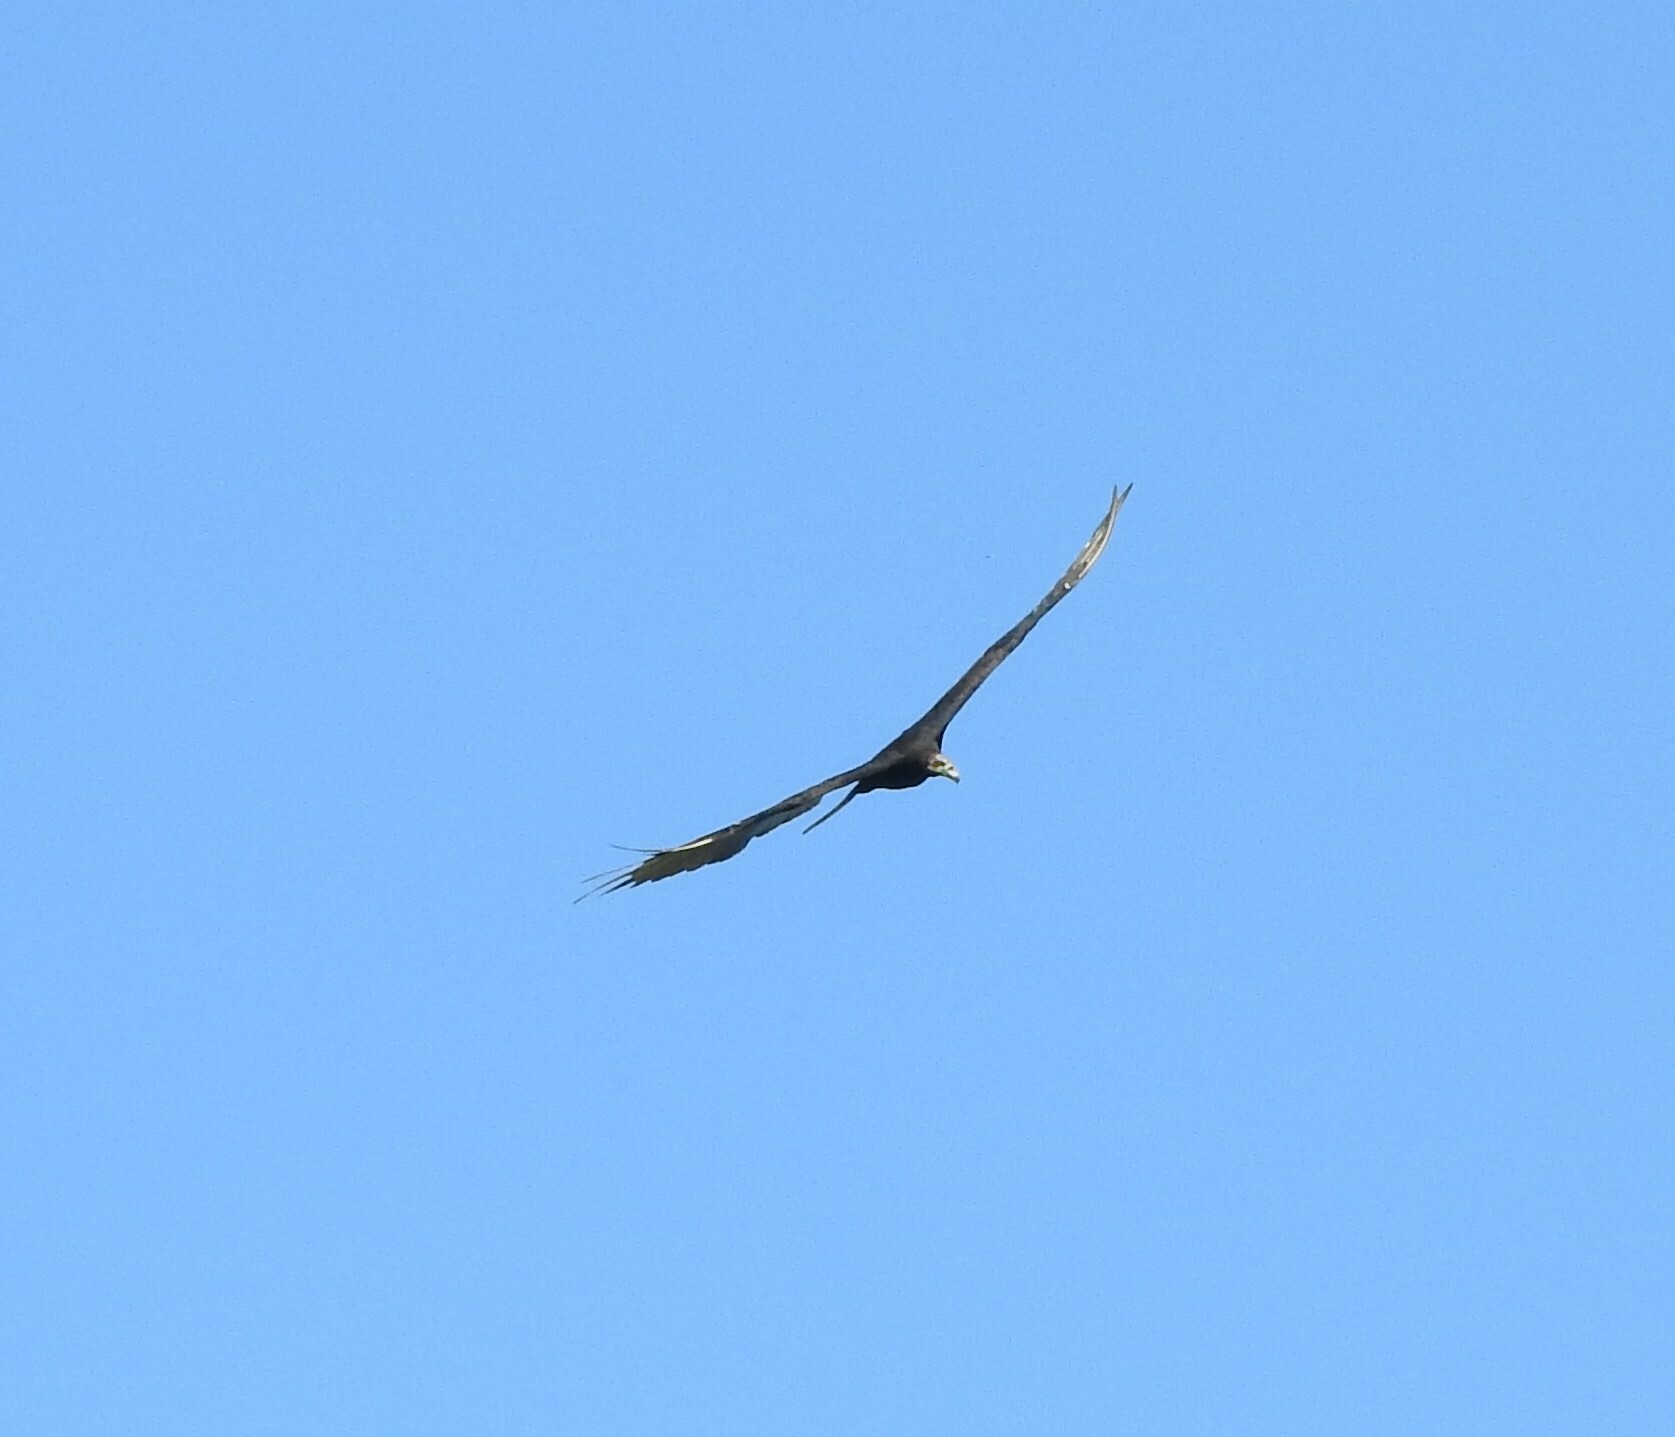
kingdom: Animalia
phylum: Chordata
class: Aves
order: Accipitriformes
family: Cathartidae
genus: Cathartes
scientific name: Cathartes burrovianus
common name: Lesser yellow-headed vulture
